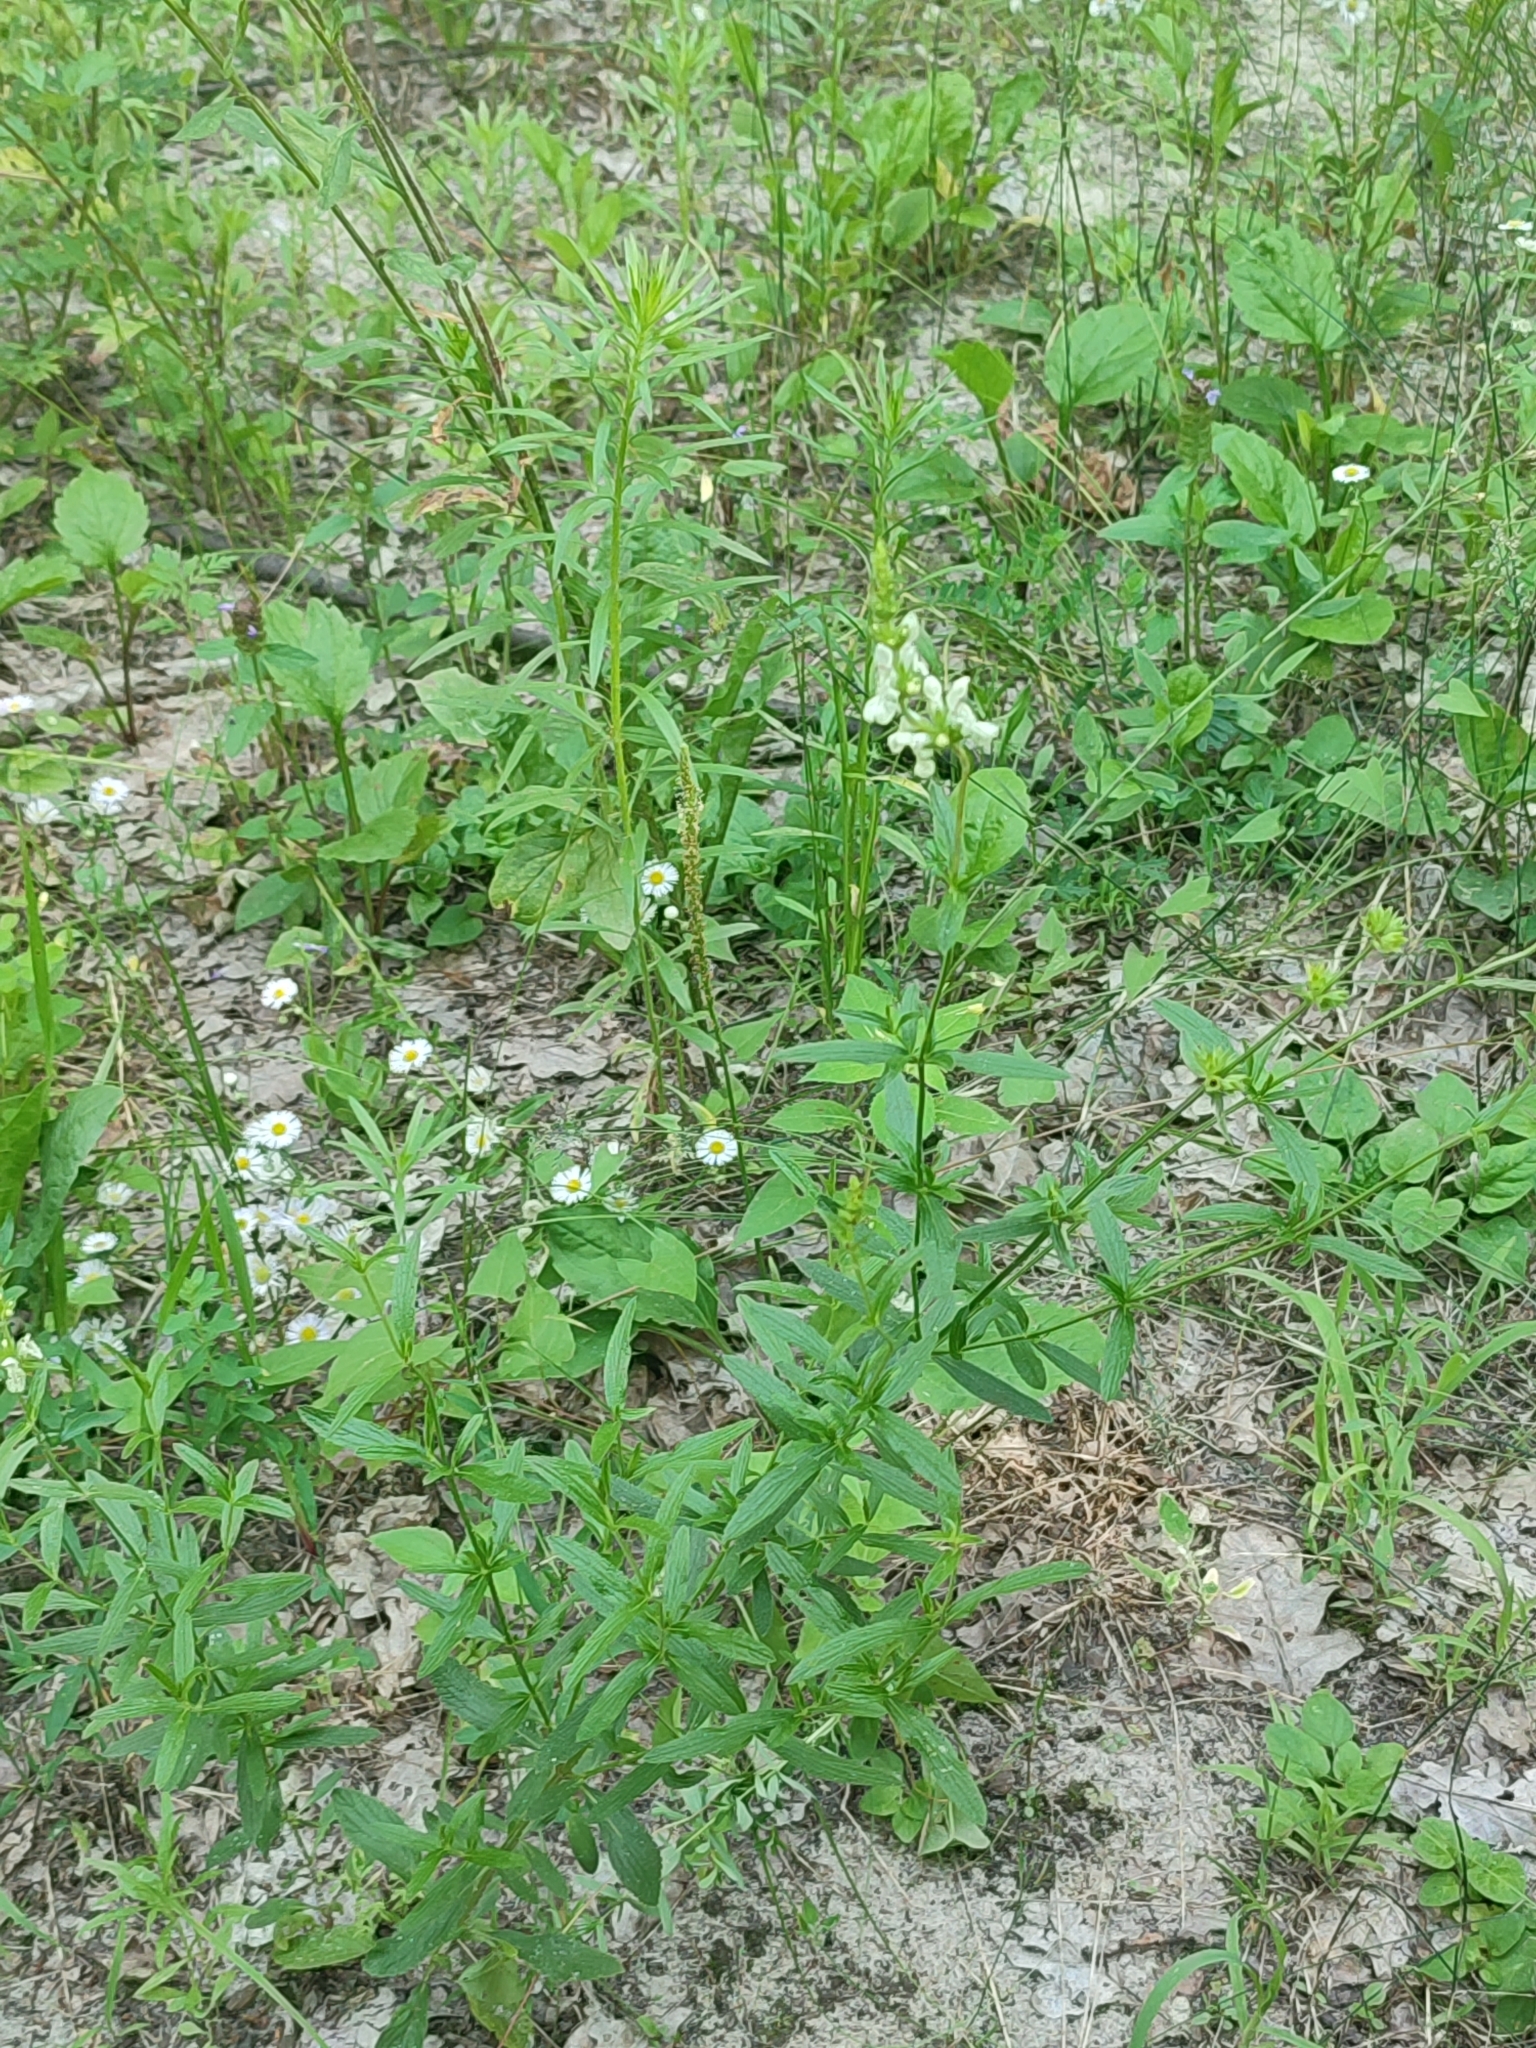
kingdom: Plantae
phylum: Tracheophyta
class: Magnoliopsida
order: Lamiales
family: Lamiaceae
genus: Stachys
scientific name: Stachys recta
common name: Perennial yellow-woundwort
